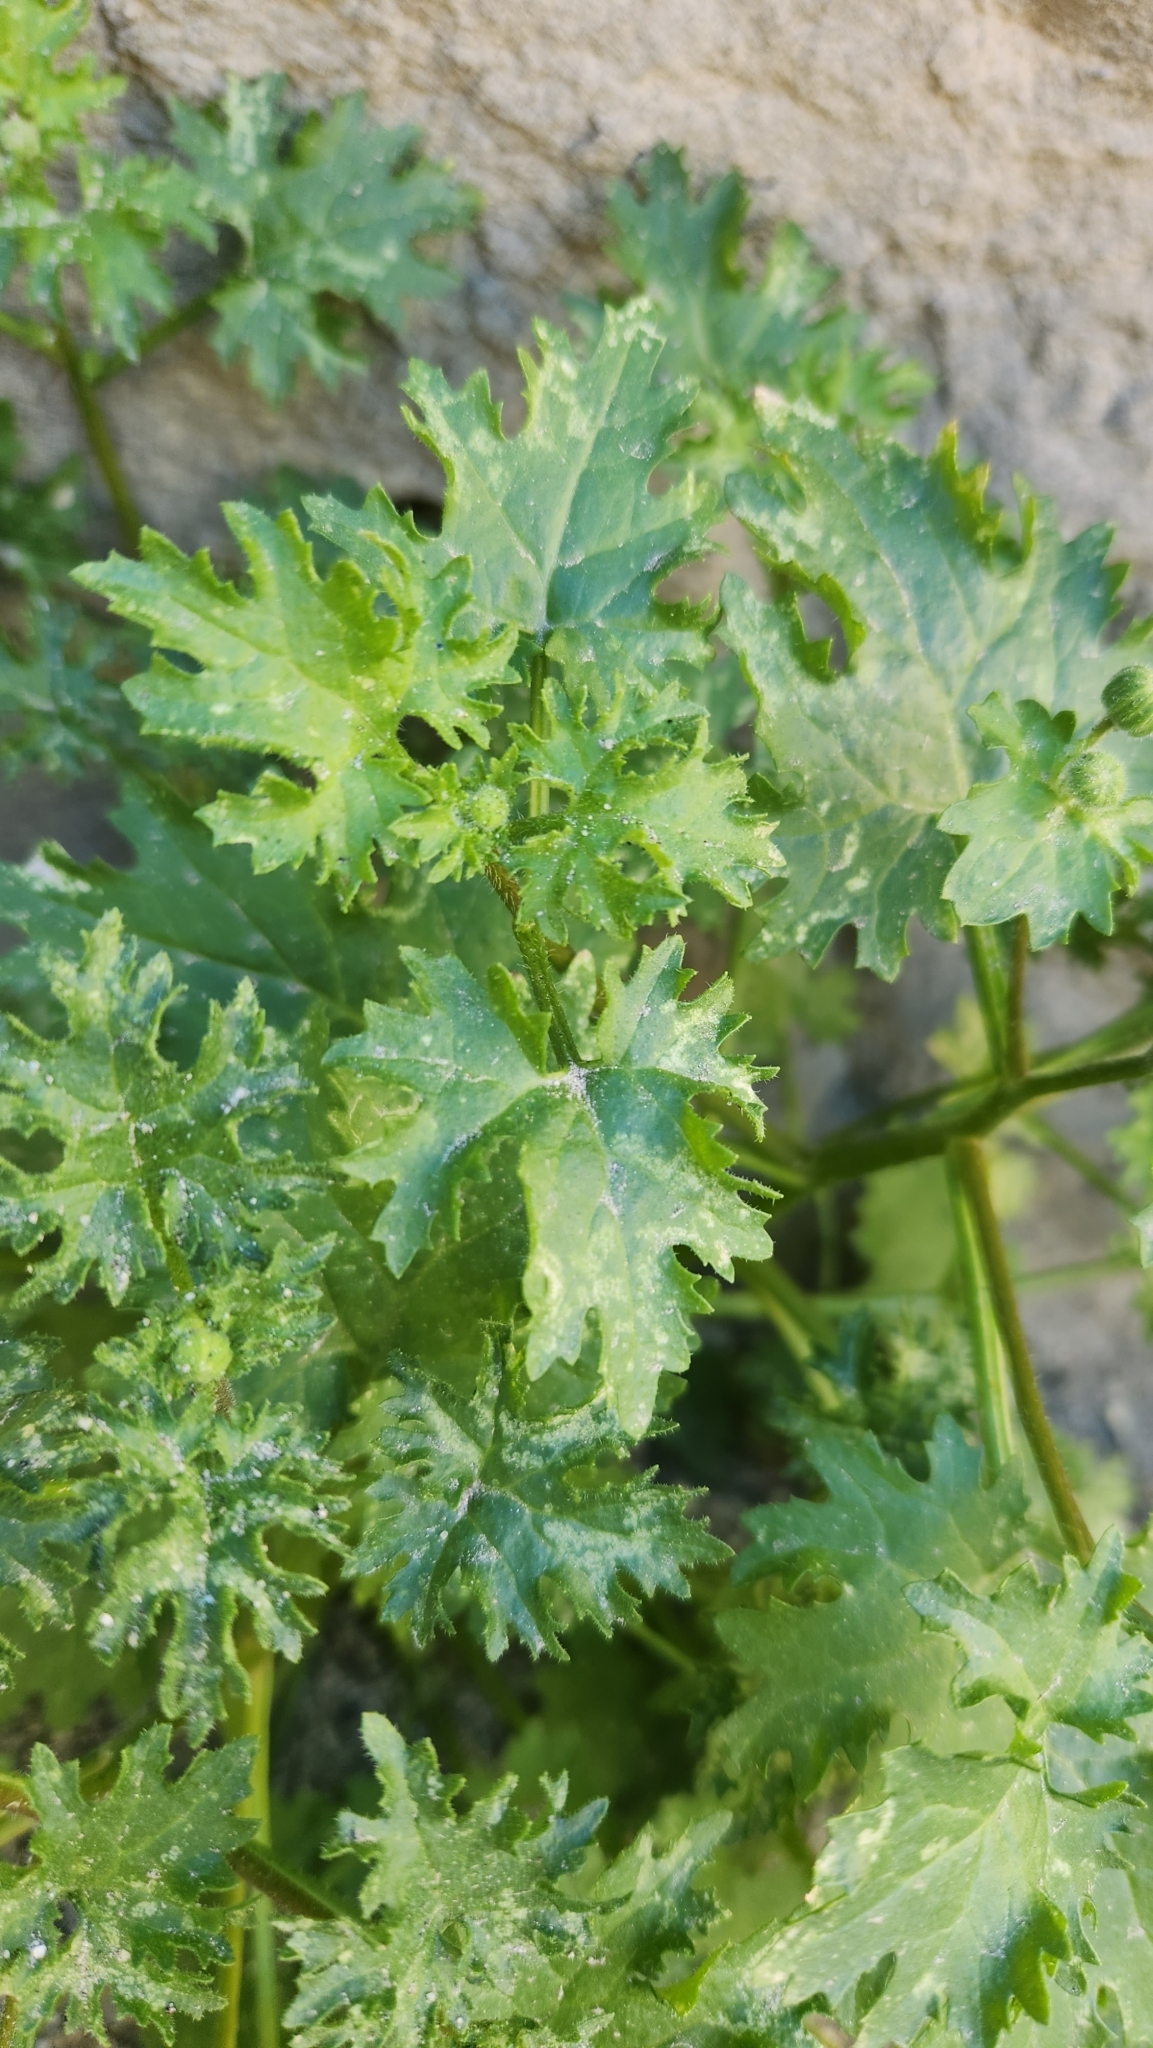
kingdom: Plantae
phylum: Tracheophyta
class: Magnoliopsida
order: Asterales
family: Asteraceae
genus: Laphamia
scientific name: Laphamia emoryi
